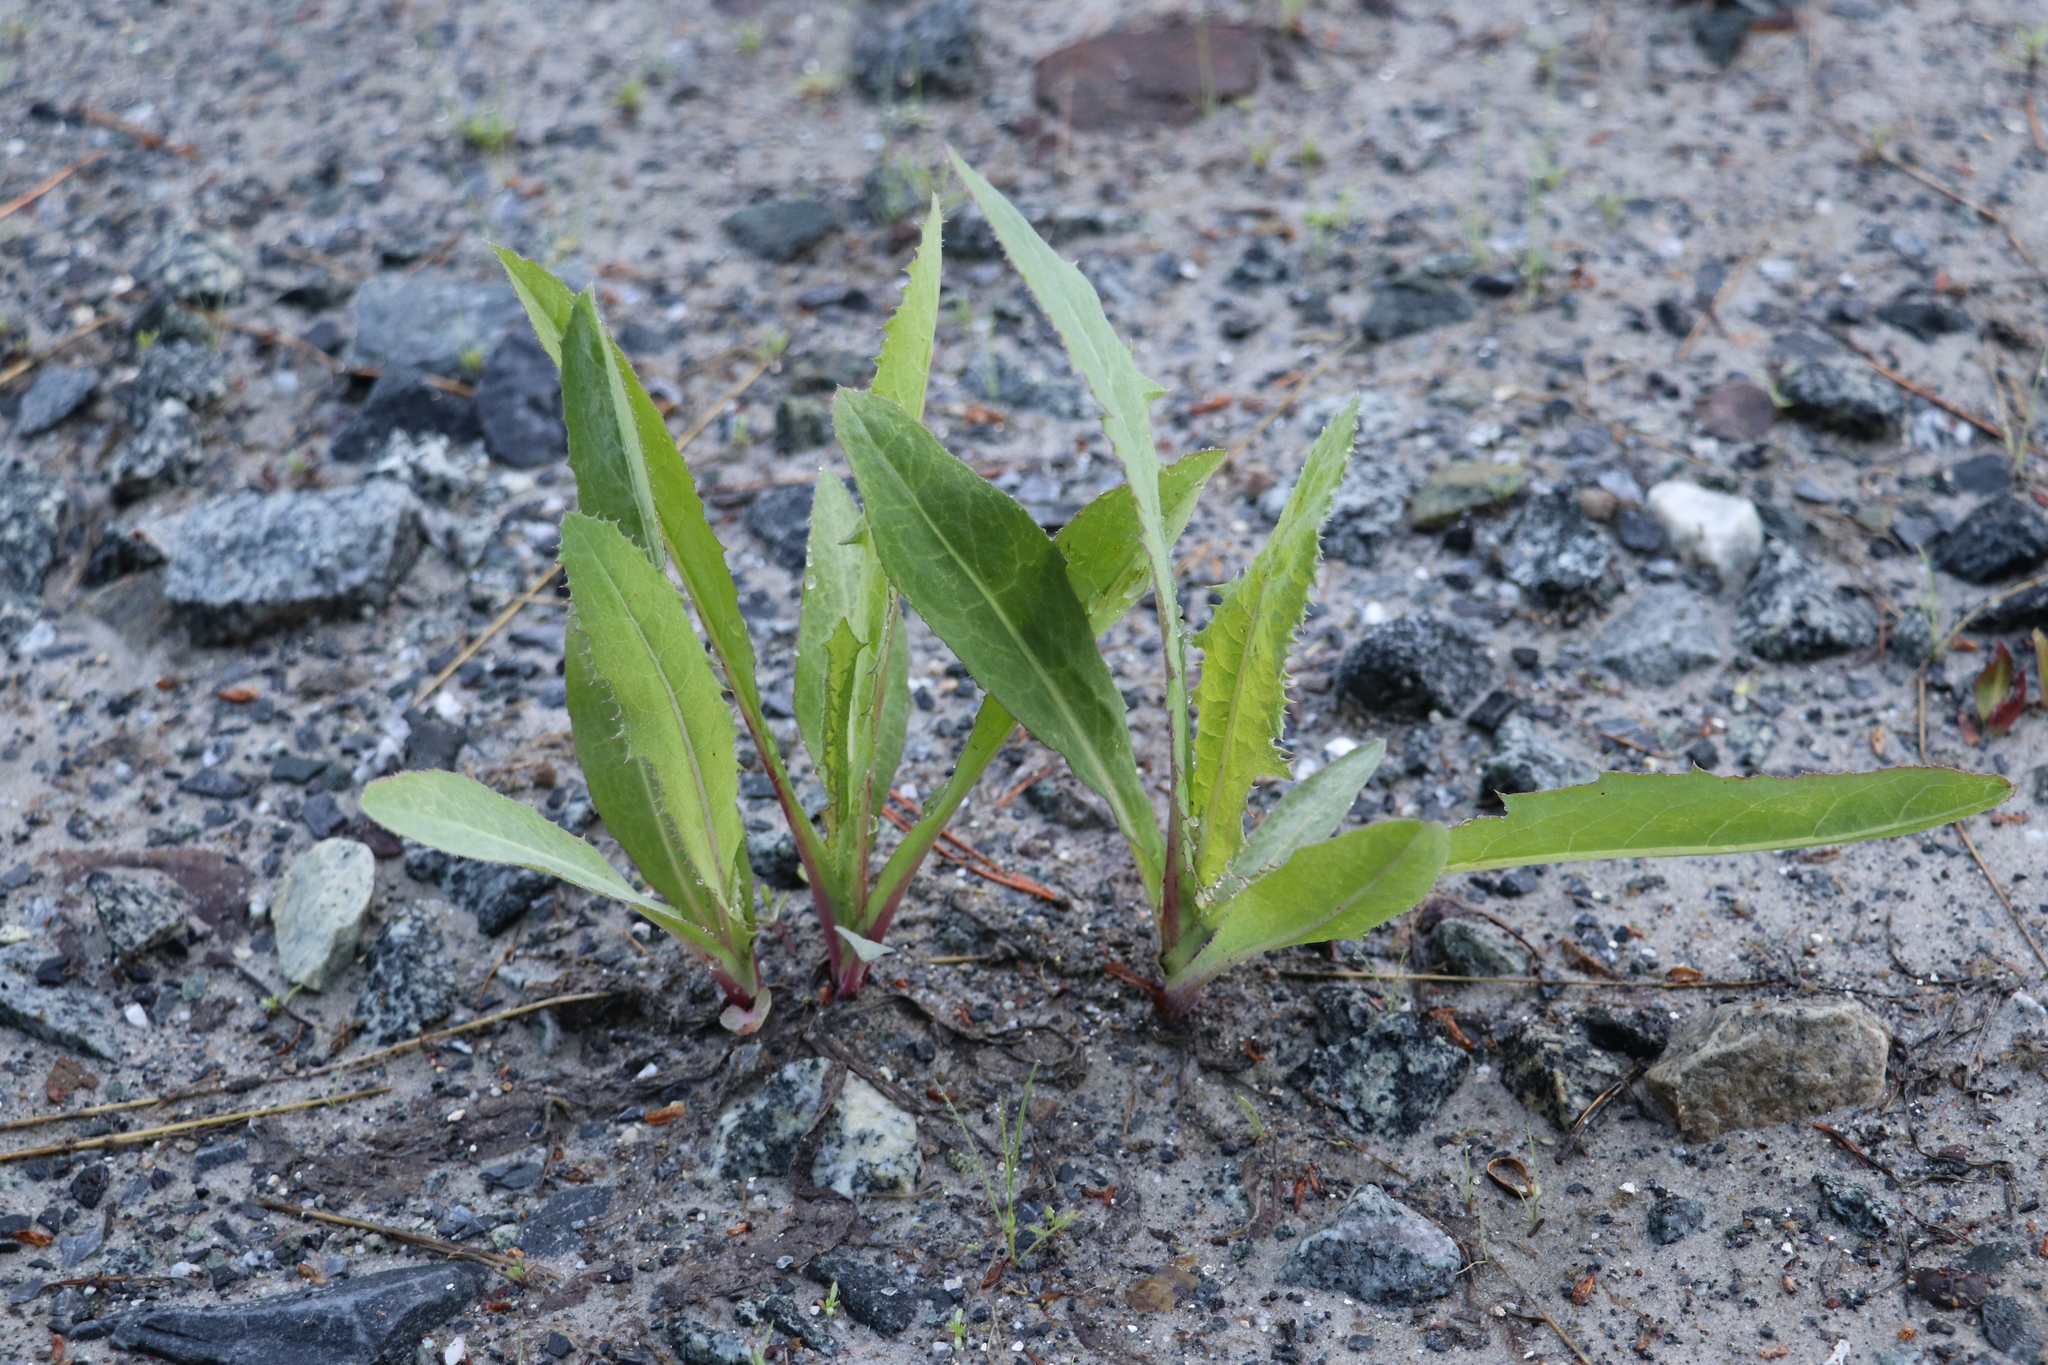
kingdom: Plantae
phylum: Tracheophyta
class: Magnoliopsida
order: Asterales
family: Asteraceae
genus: Sonchus
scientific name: Sonchus arvensis
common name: Perennial sow-thistle
